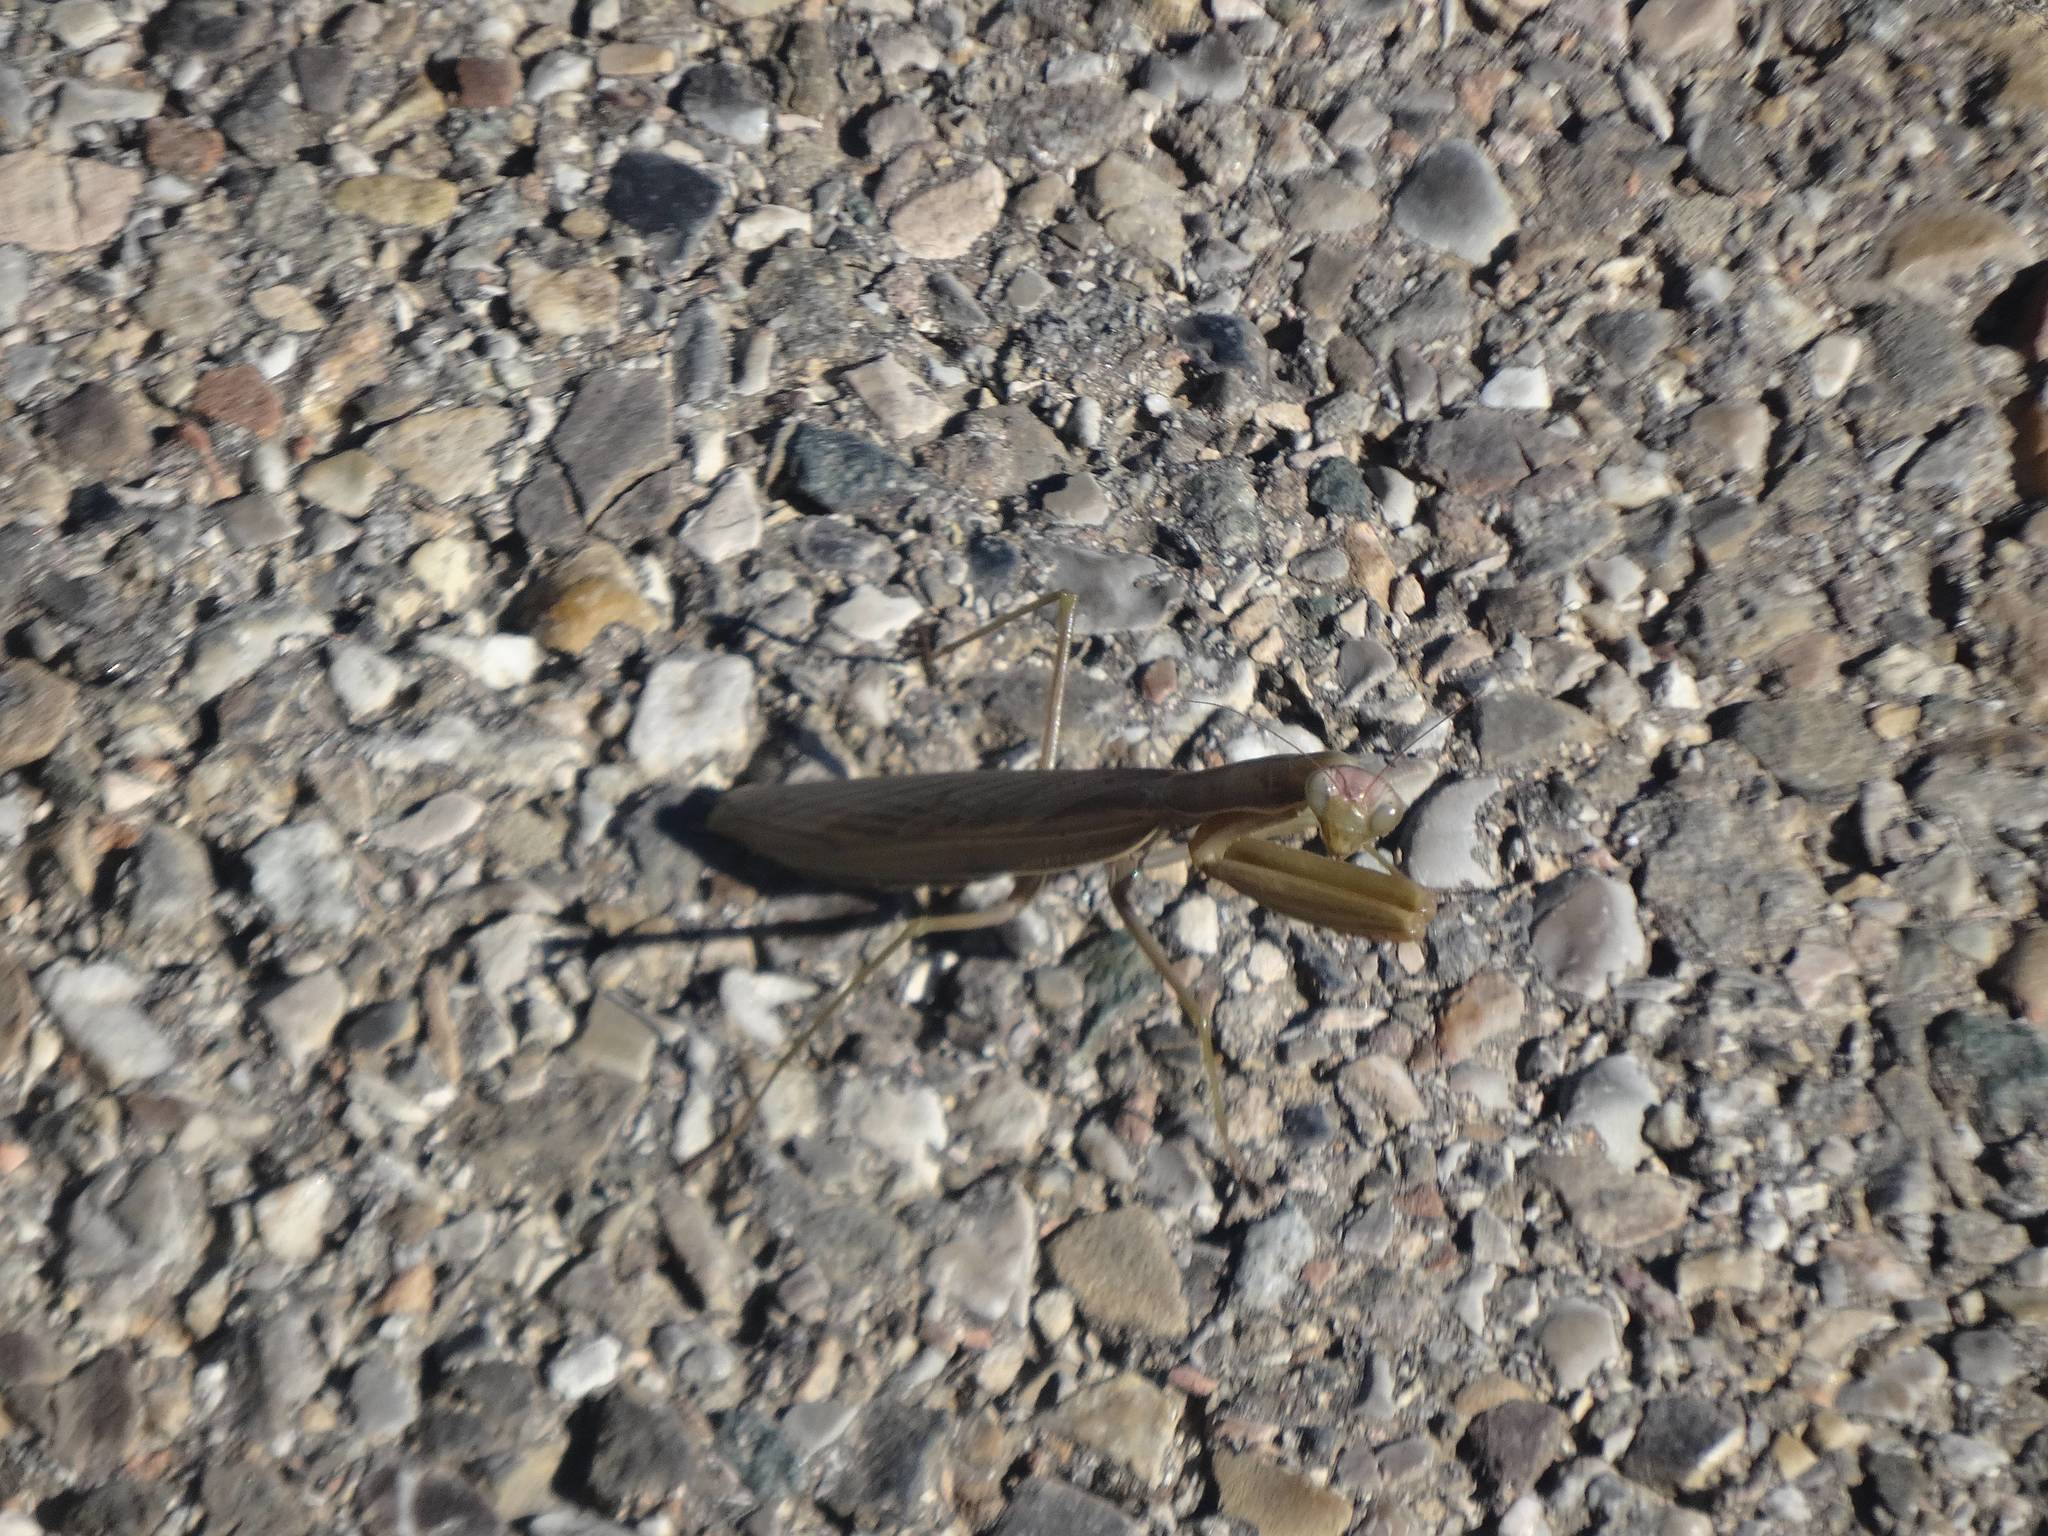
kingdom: Animalia
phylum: Arthropoda
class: Insecta
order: Mantodea
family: Mantidae
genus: Mantis
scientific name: Mantis religiosa
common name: Praying mantis
